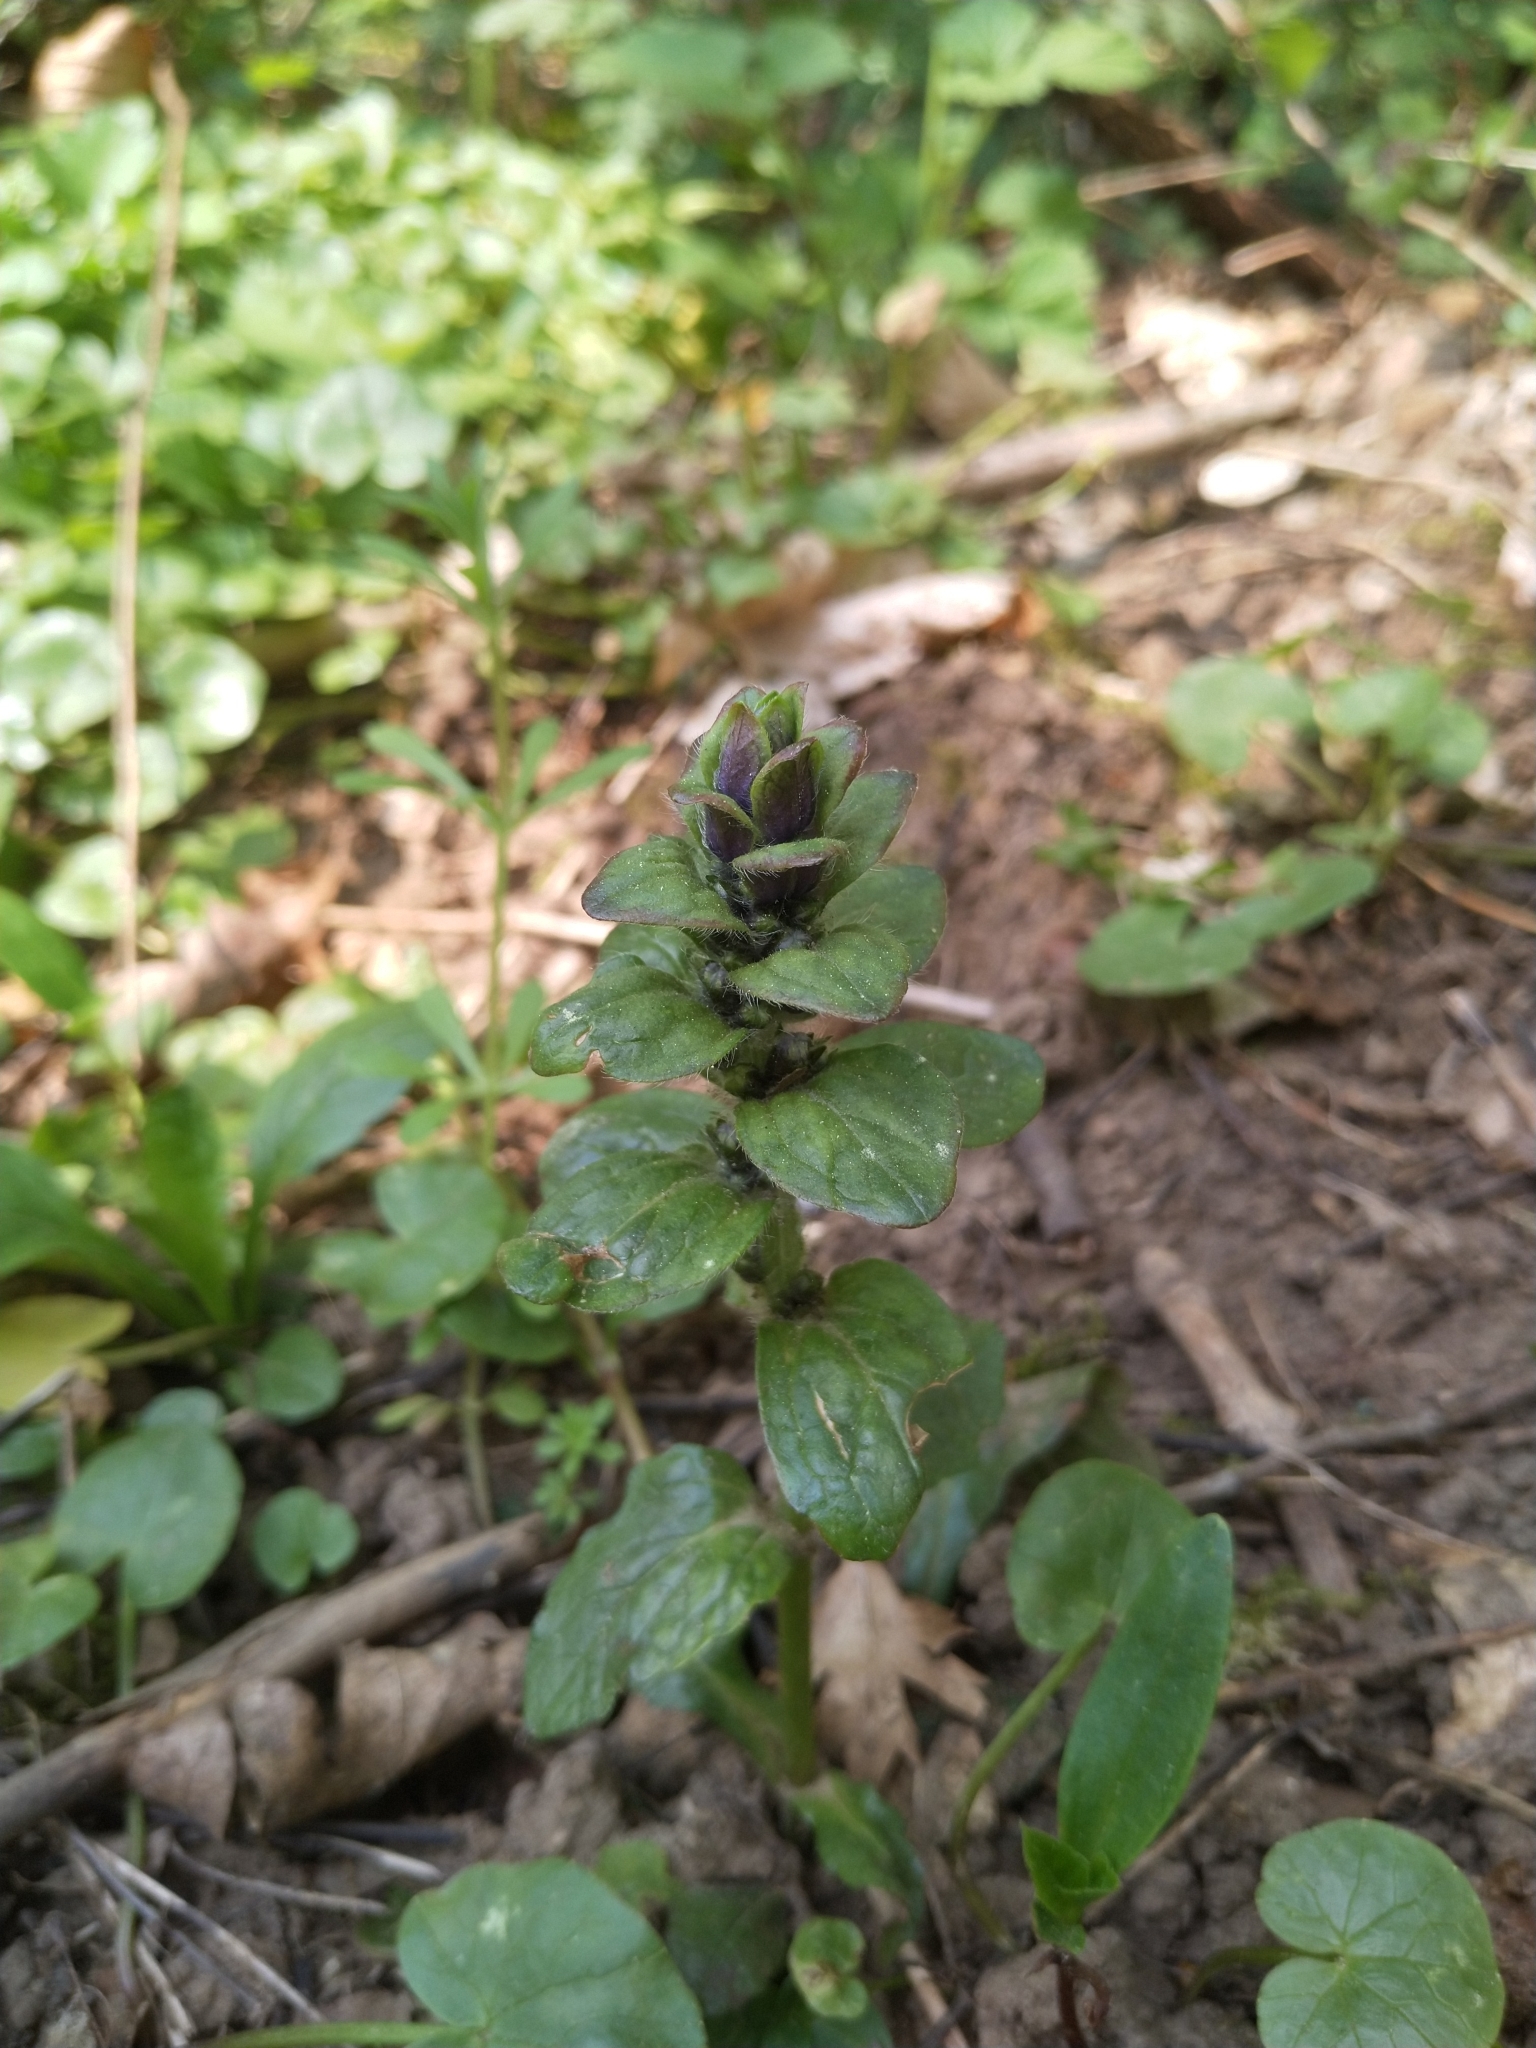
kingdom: Plantae
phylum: Tracheophyta
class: Magnoliopsida
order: Lamiales
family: Lamiaceae
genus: Ajuga
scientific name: Ajuga reptans
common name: Bugle
